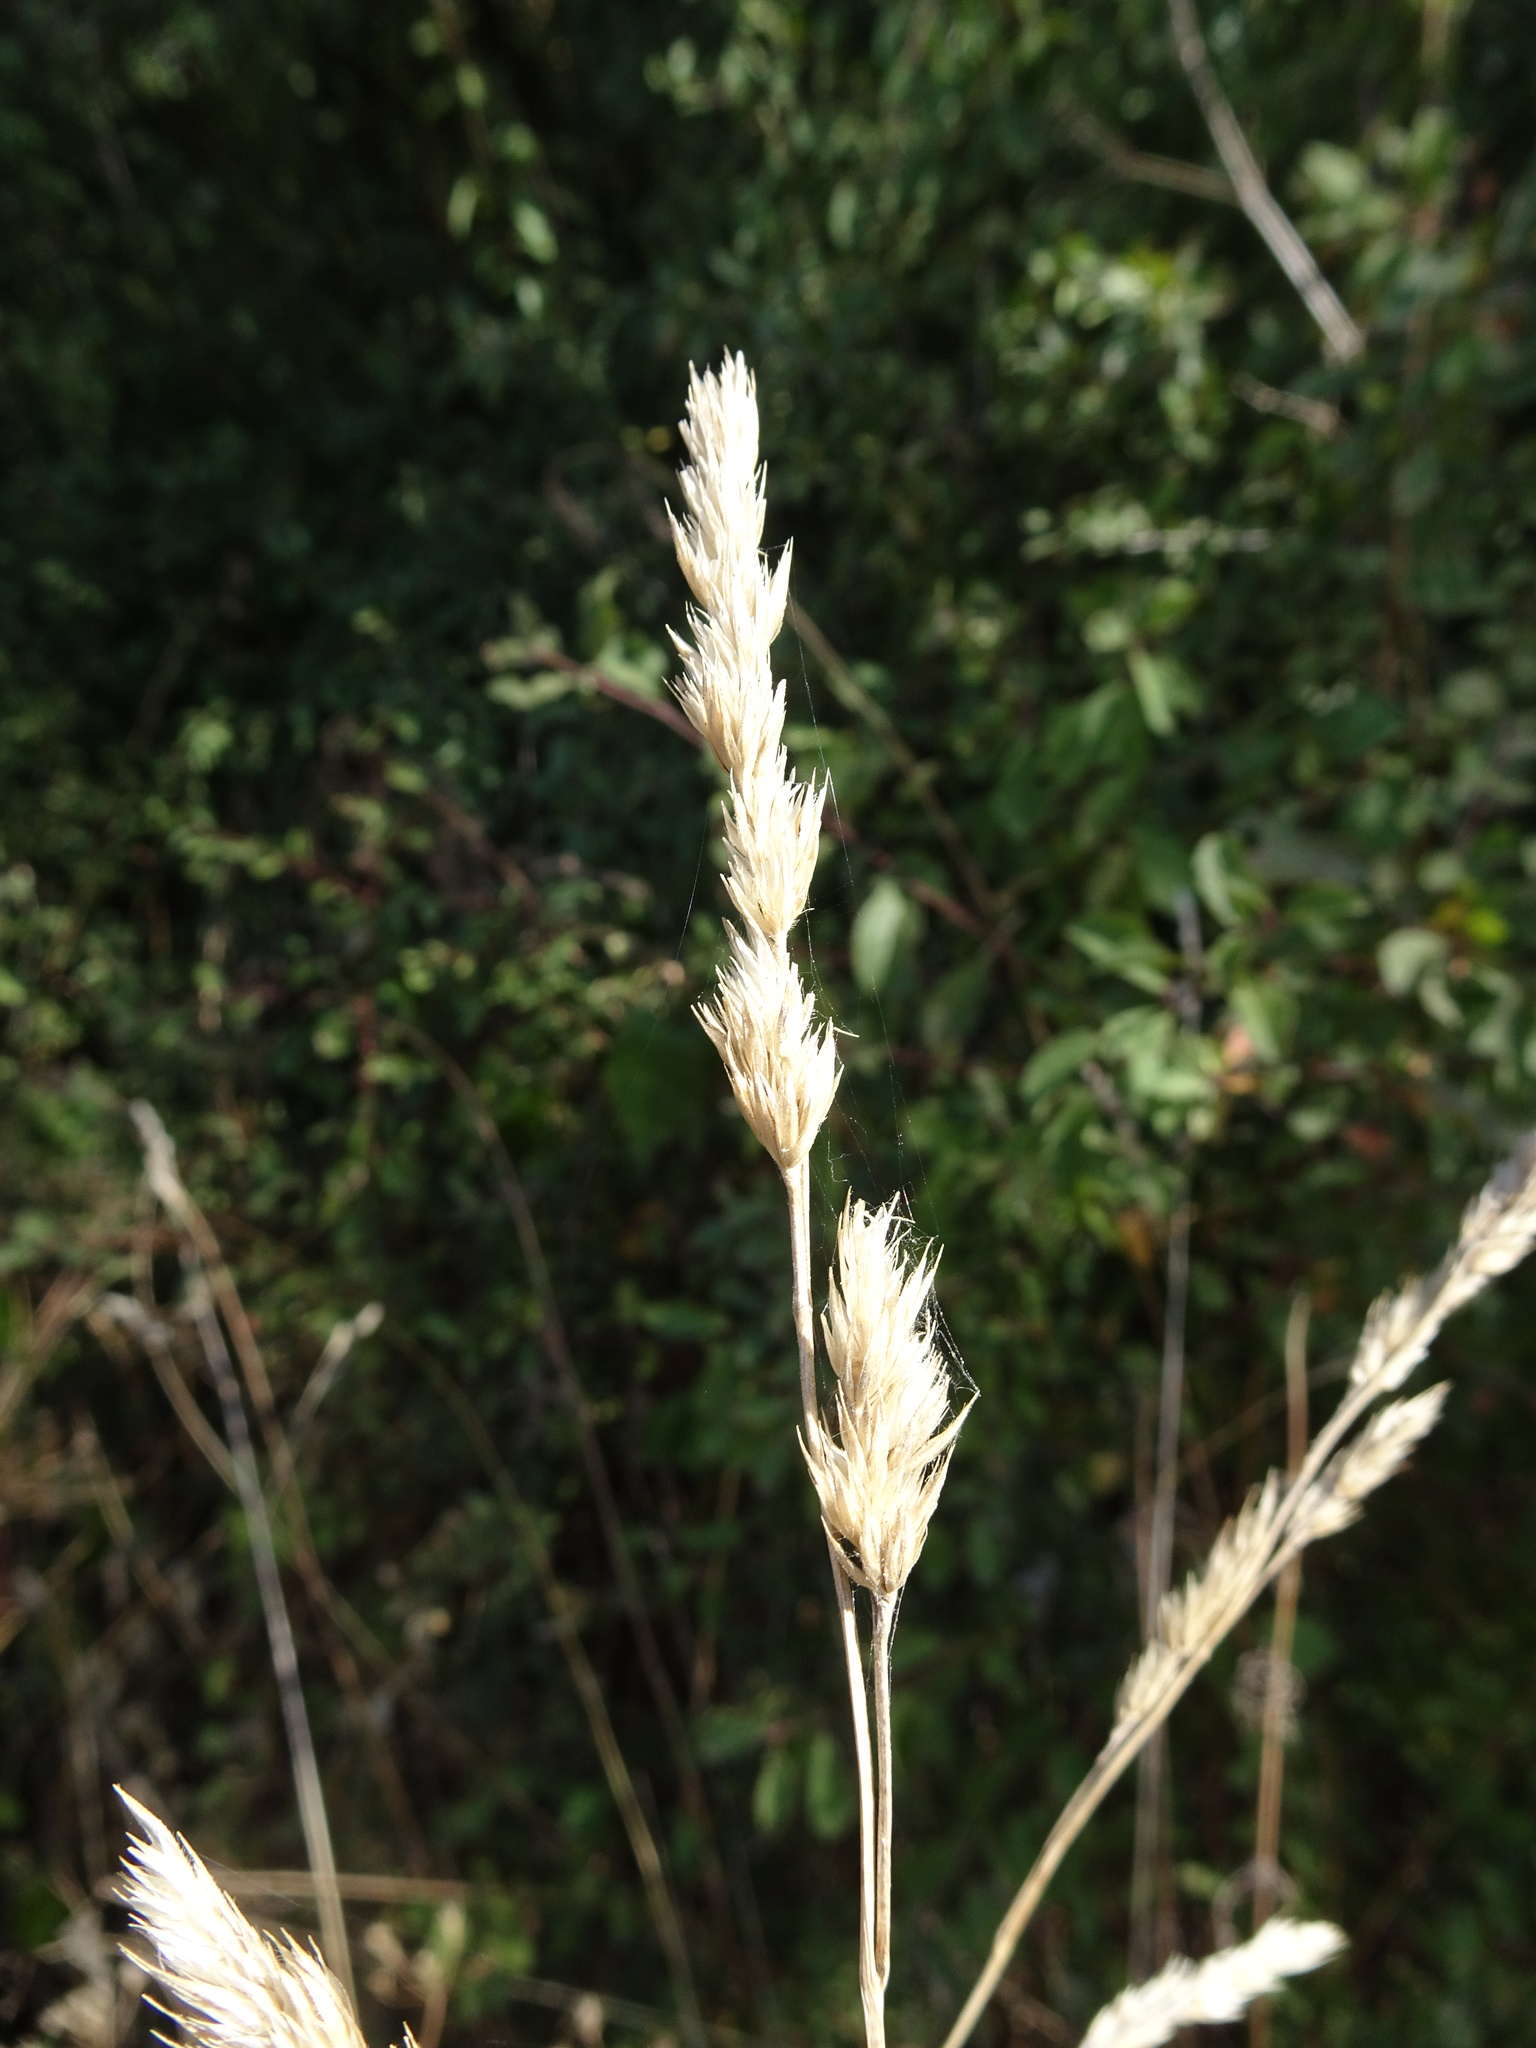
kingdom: Plantae
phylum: Tracheophyta
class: Liliopsida
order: Poales
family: Poaceae
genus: Dactylis
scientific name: Dactylis glomerata
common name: Orchardgrass
